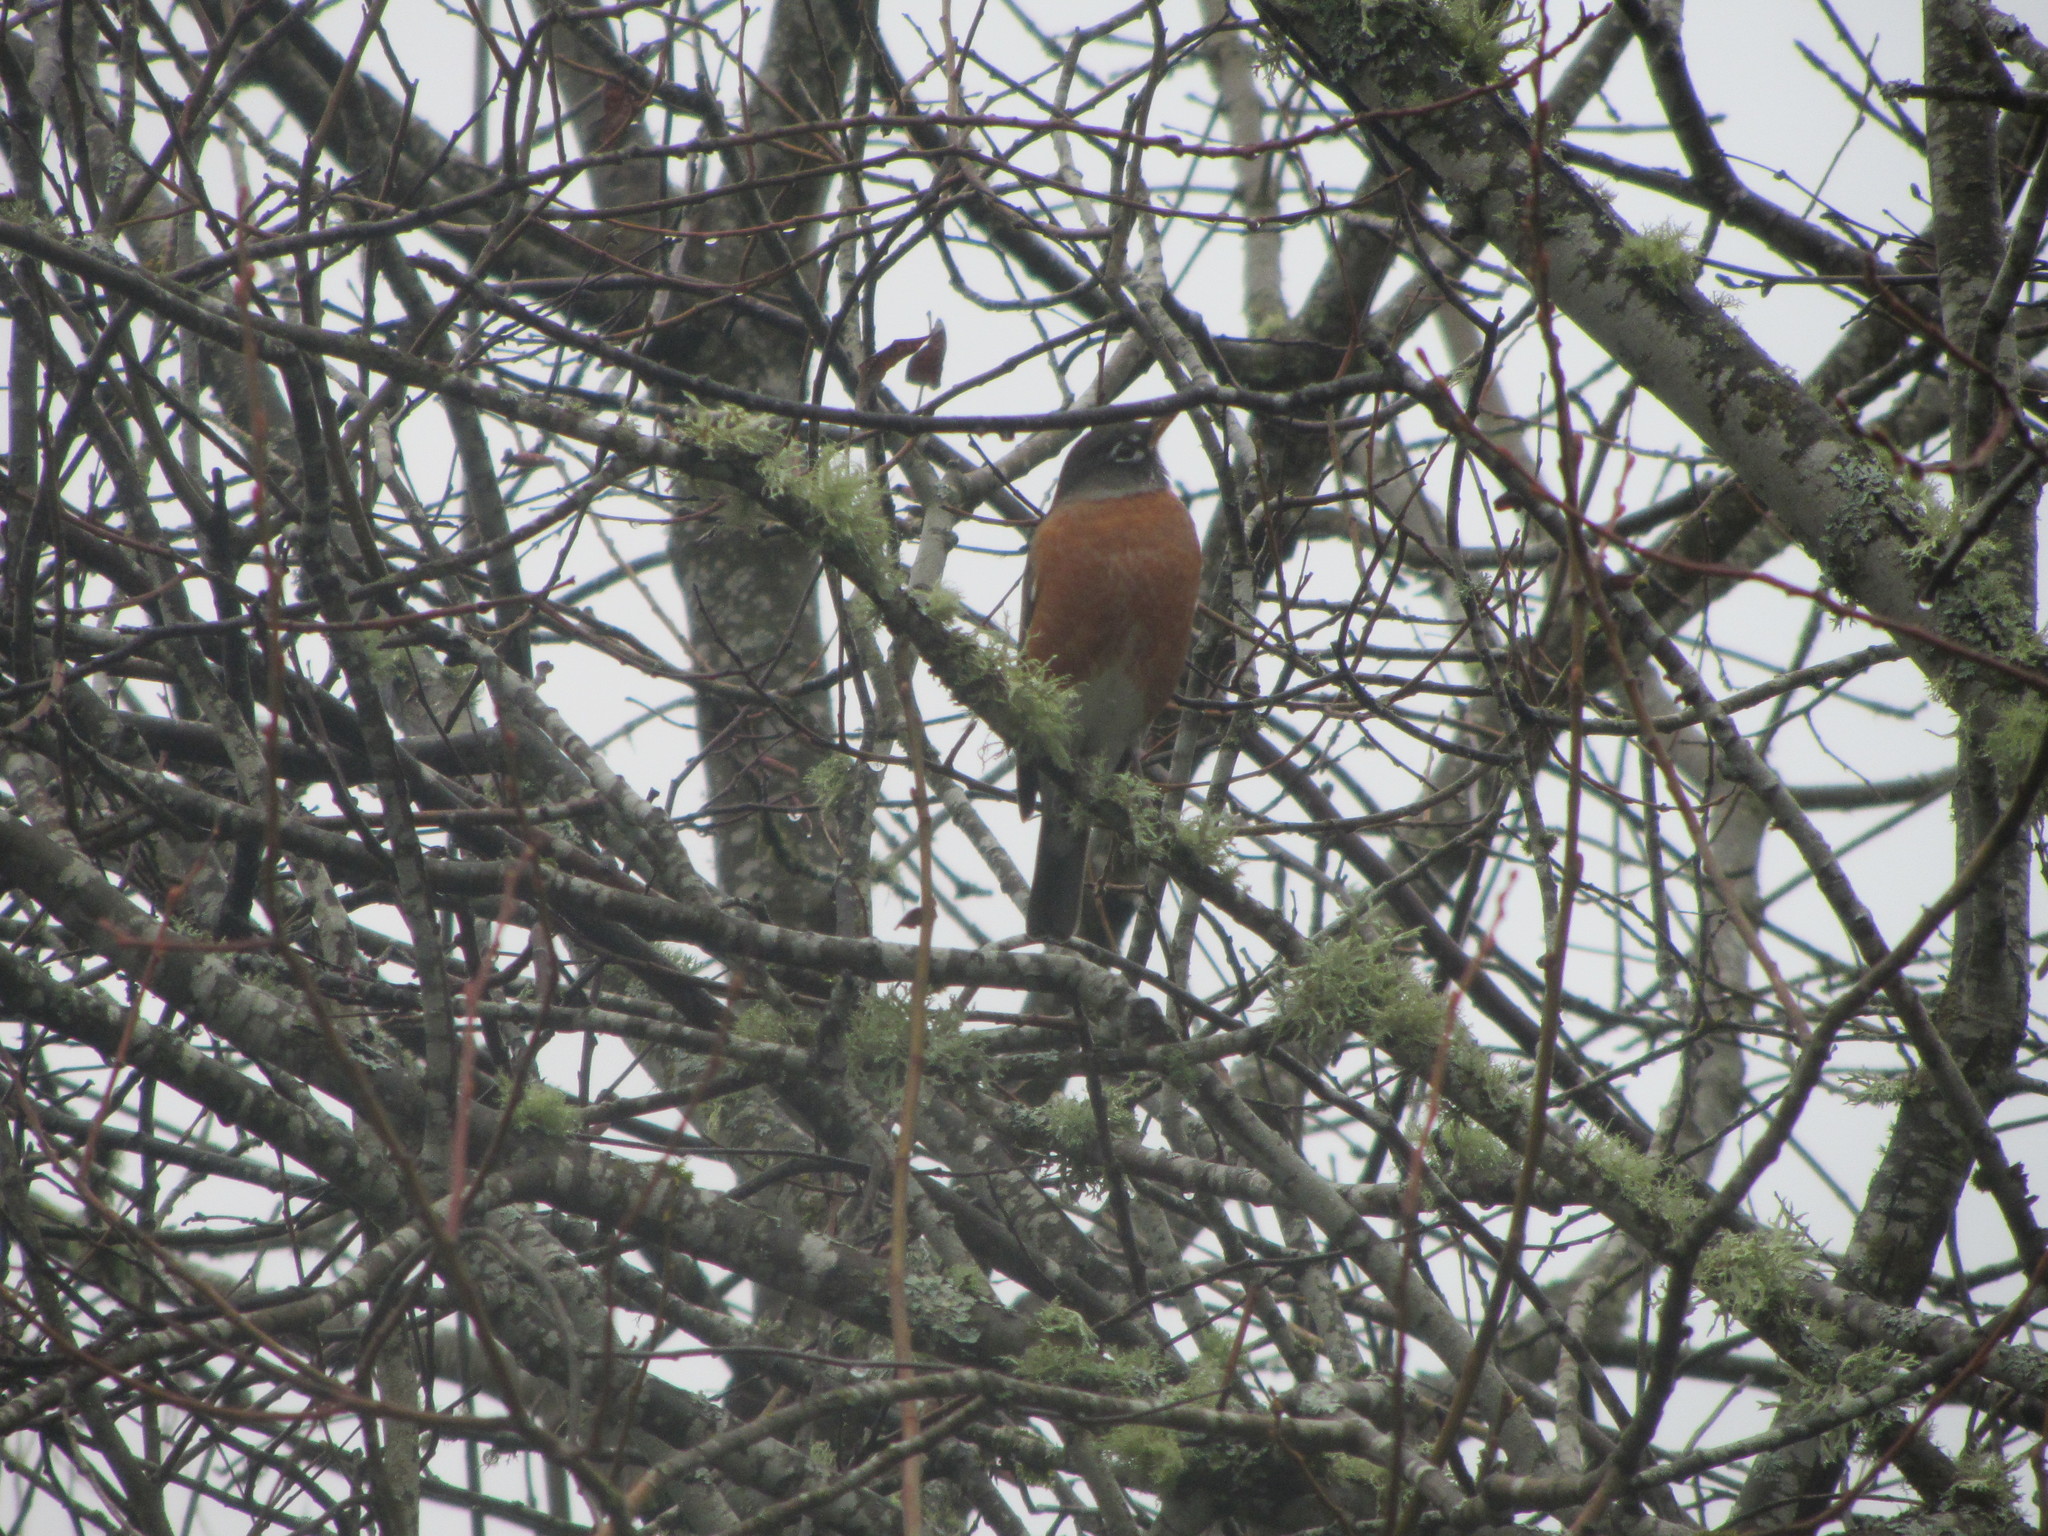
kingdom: Animalia
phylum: Chordata
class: Aves
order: Passeriformes
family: Turdidae
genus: Turdus
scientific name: Turdus migratorius
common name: American robin
